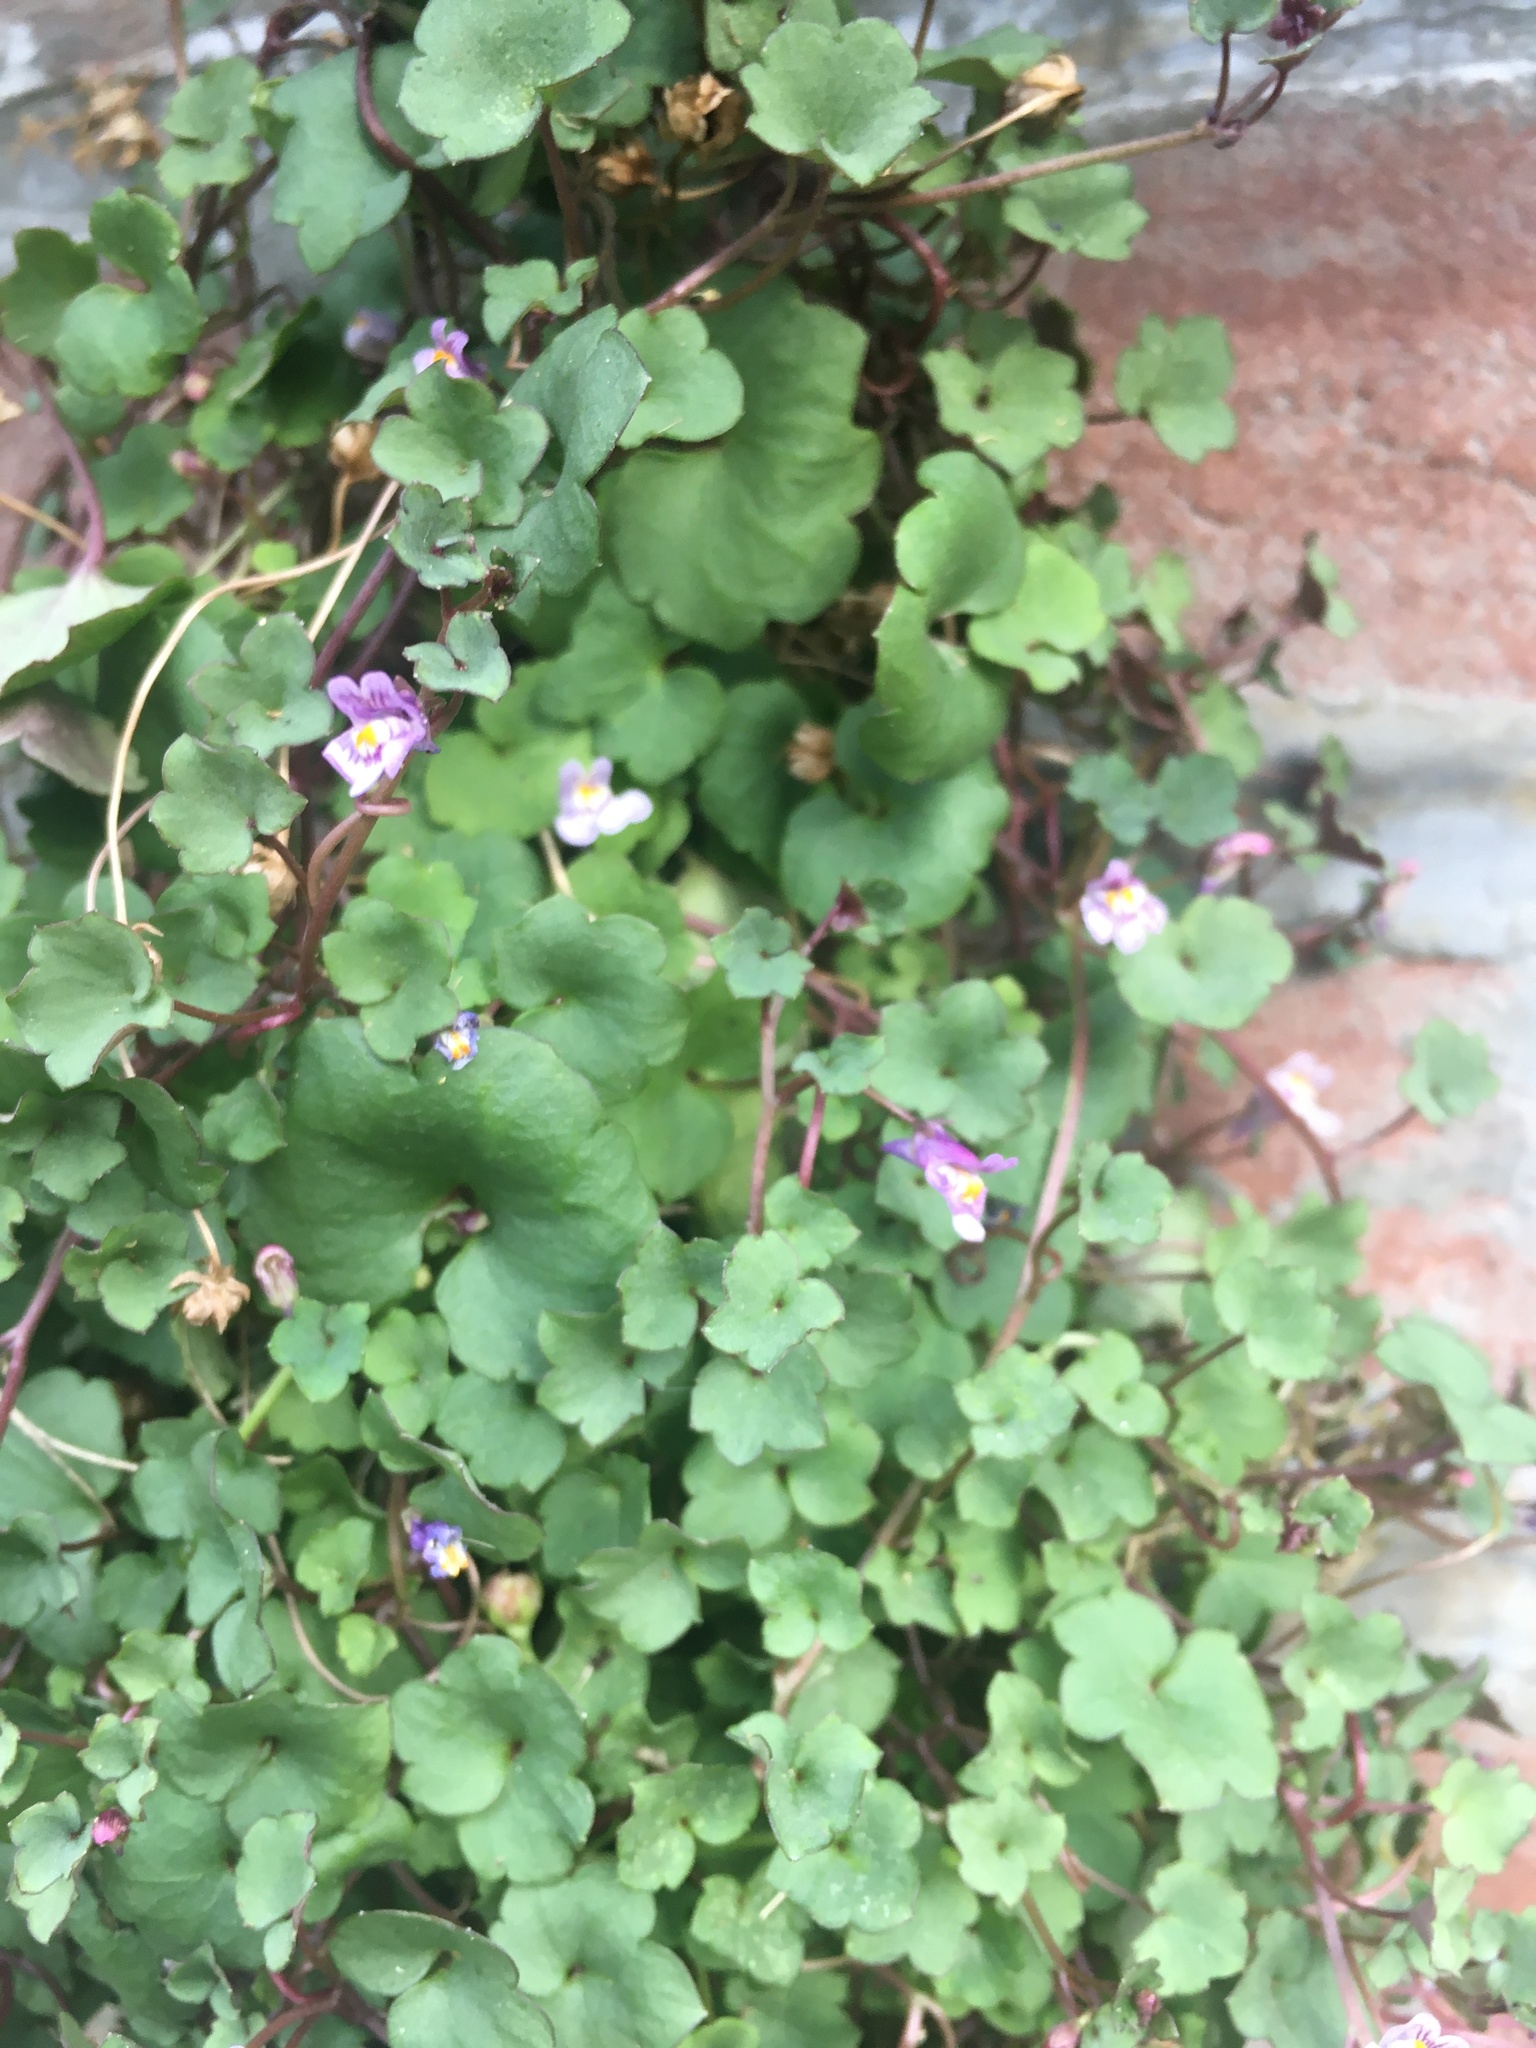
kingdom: Plantae
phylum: Tracheophyta
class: Magnoliopsida
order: Lamiales
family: Plantaginaceae
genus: Cymbalaria
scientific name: Cymbalaria muralis
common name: Ivy-leaved toadflax
